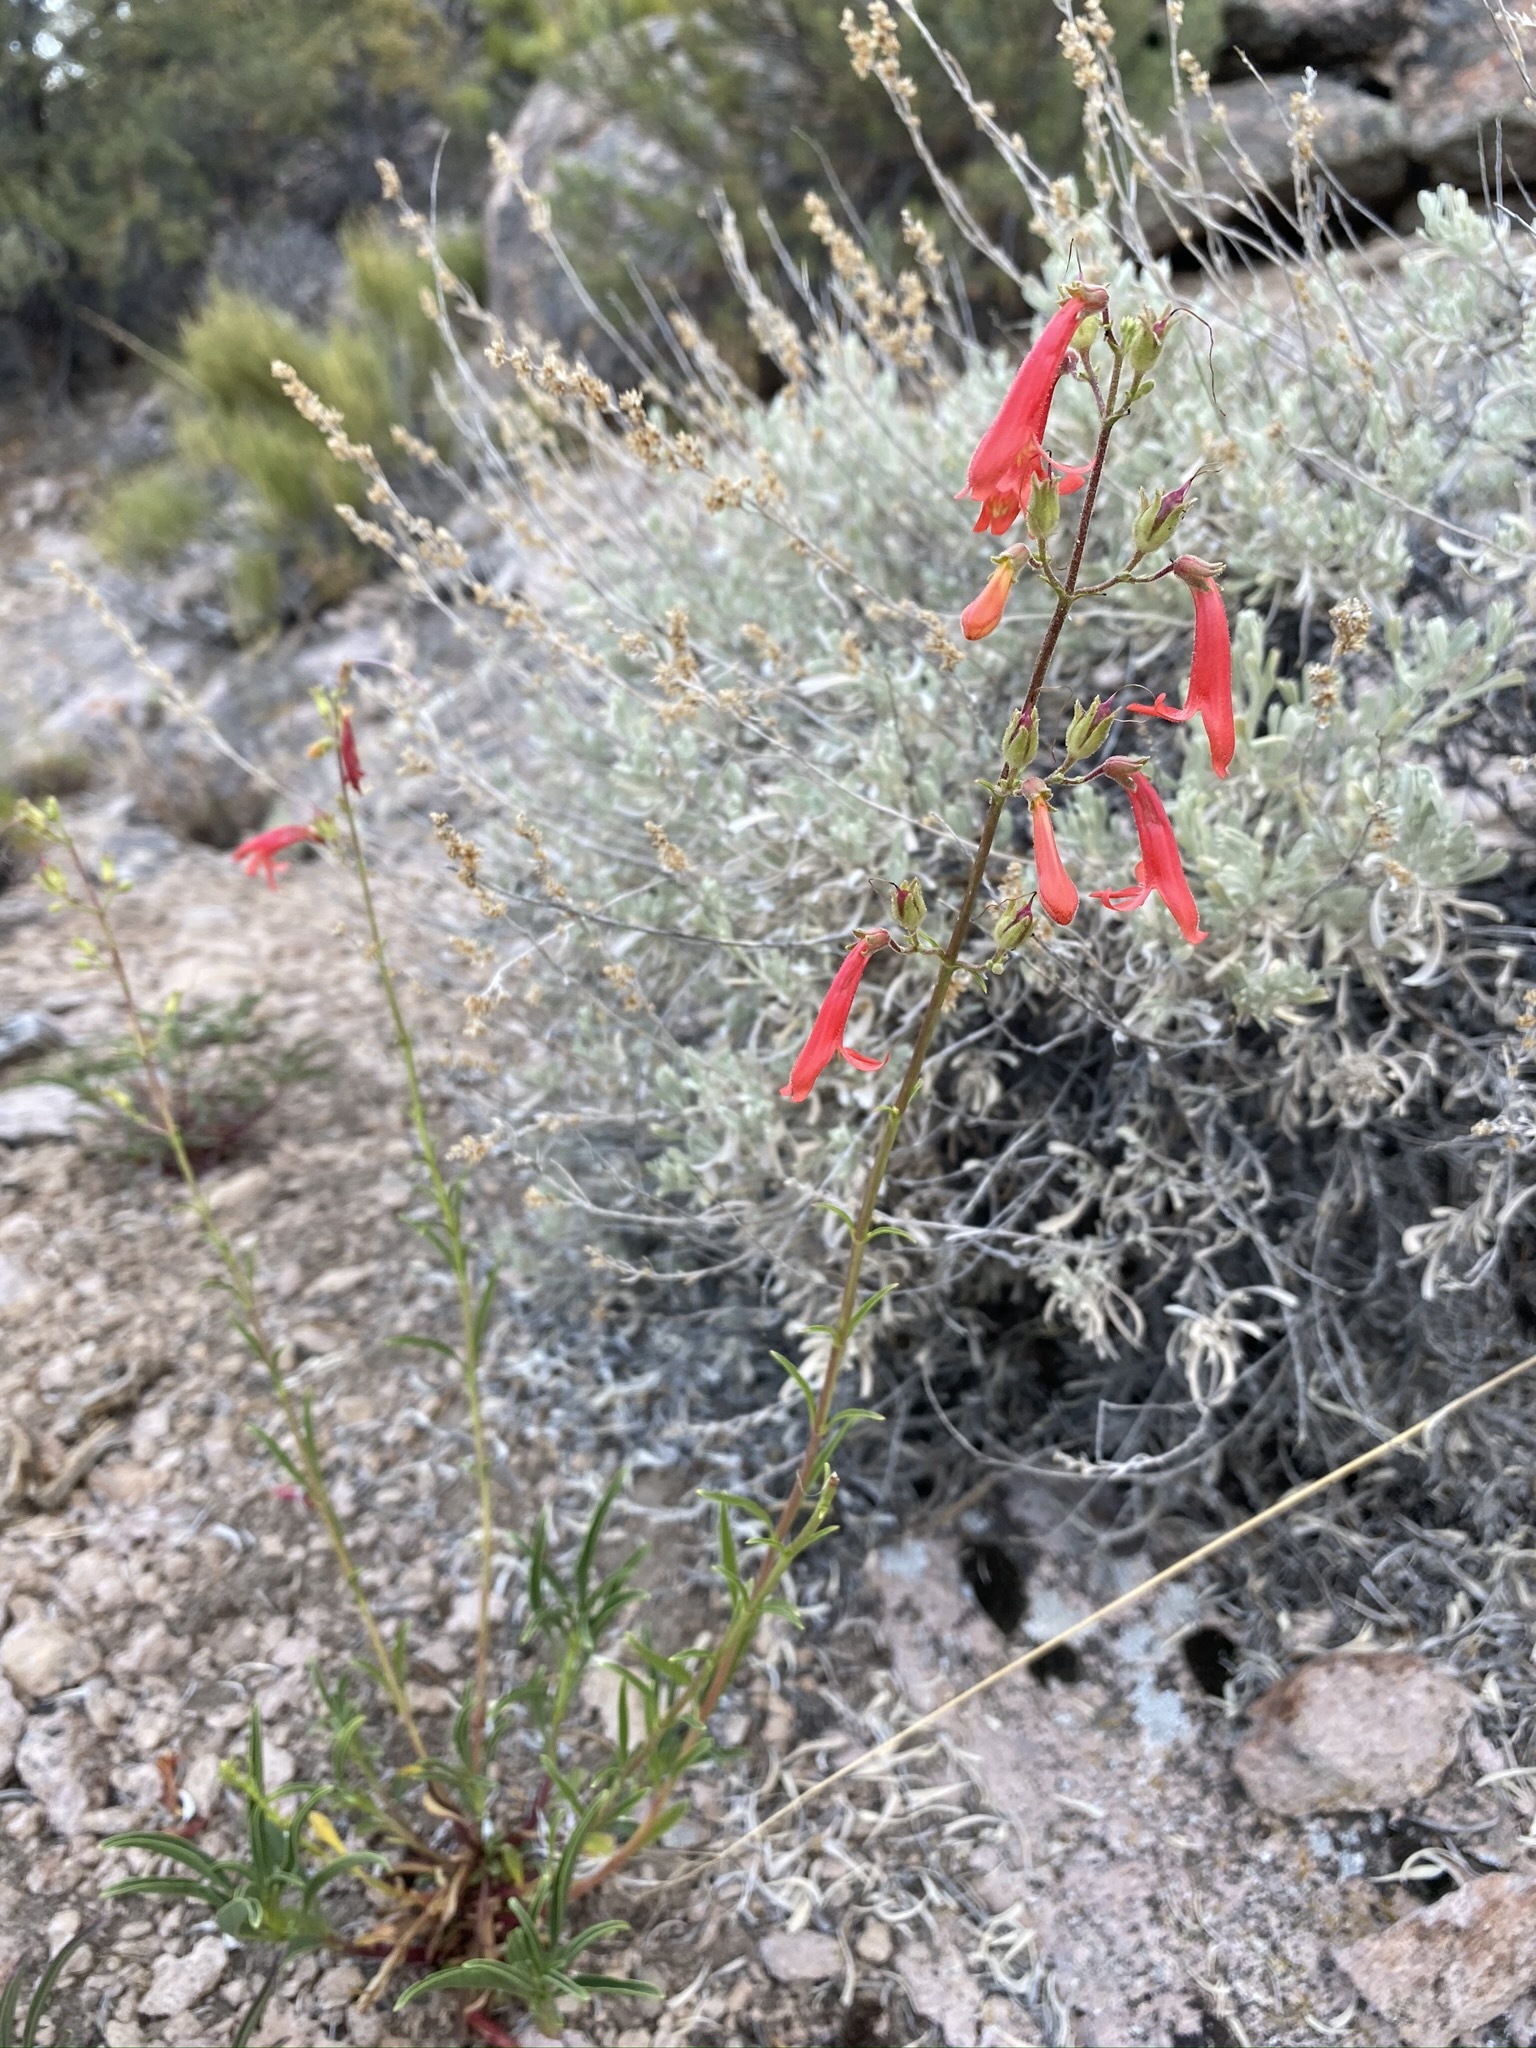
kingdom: Plantae
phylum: Tracheophyta
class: Magnoliopsida
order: Lamiales
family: Plantaginaceae
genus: Penstemon
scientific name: Penstemon rostriflorus
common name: Bridges's penstemon
